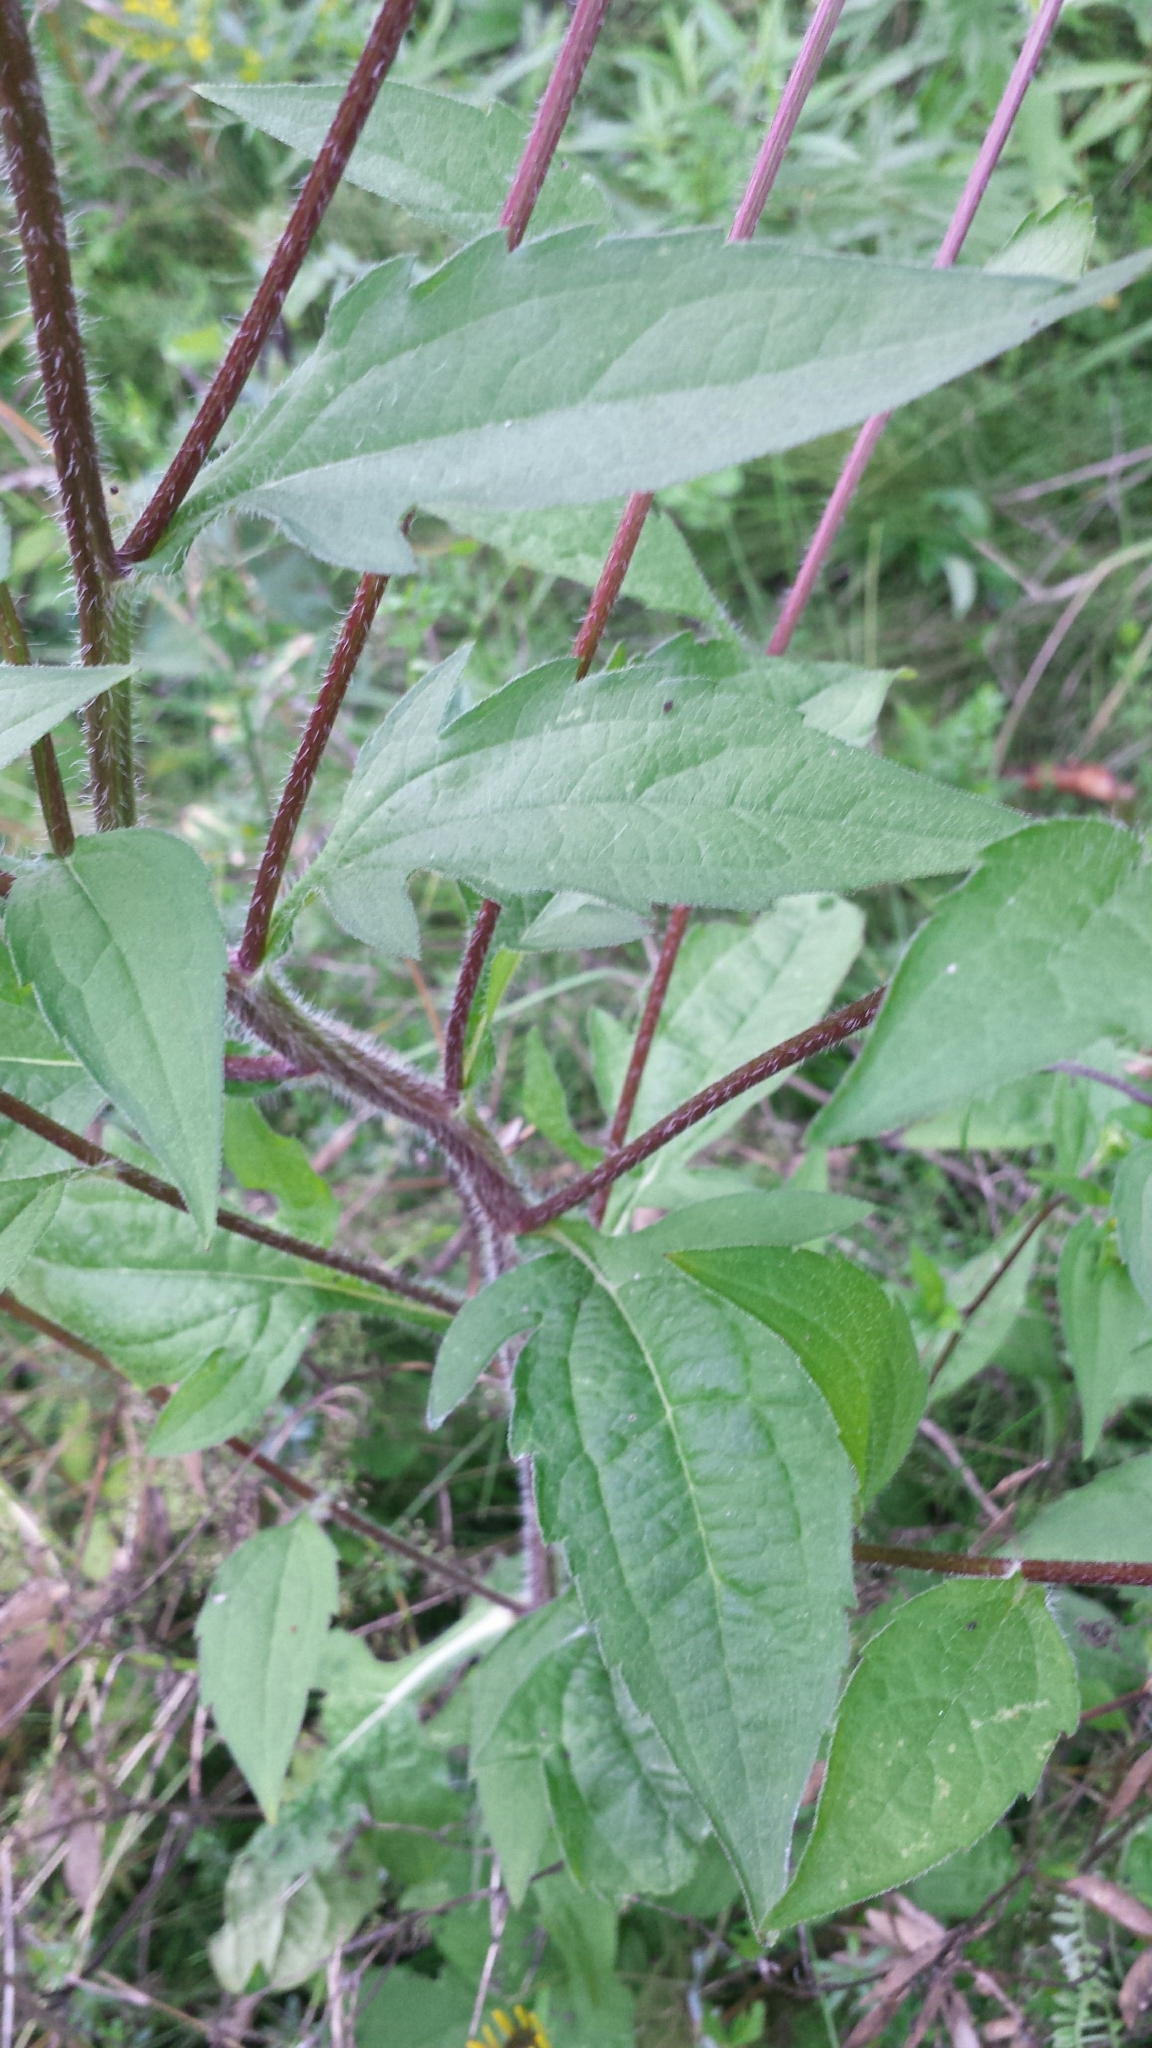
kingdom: Plantae
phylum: Tracheophyta
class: Magnoliopsida
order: Asterales
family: Asteraceae
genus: Rudbeckia
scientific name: Rudbeckia triloba
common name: Thin-leaved coneflower
